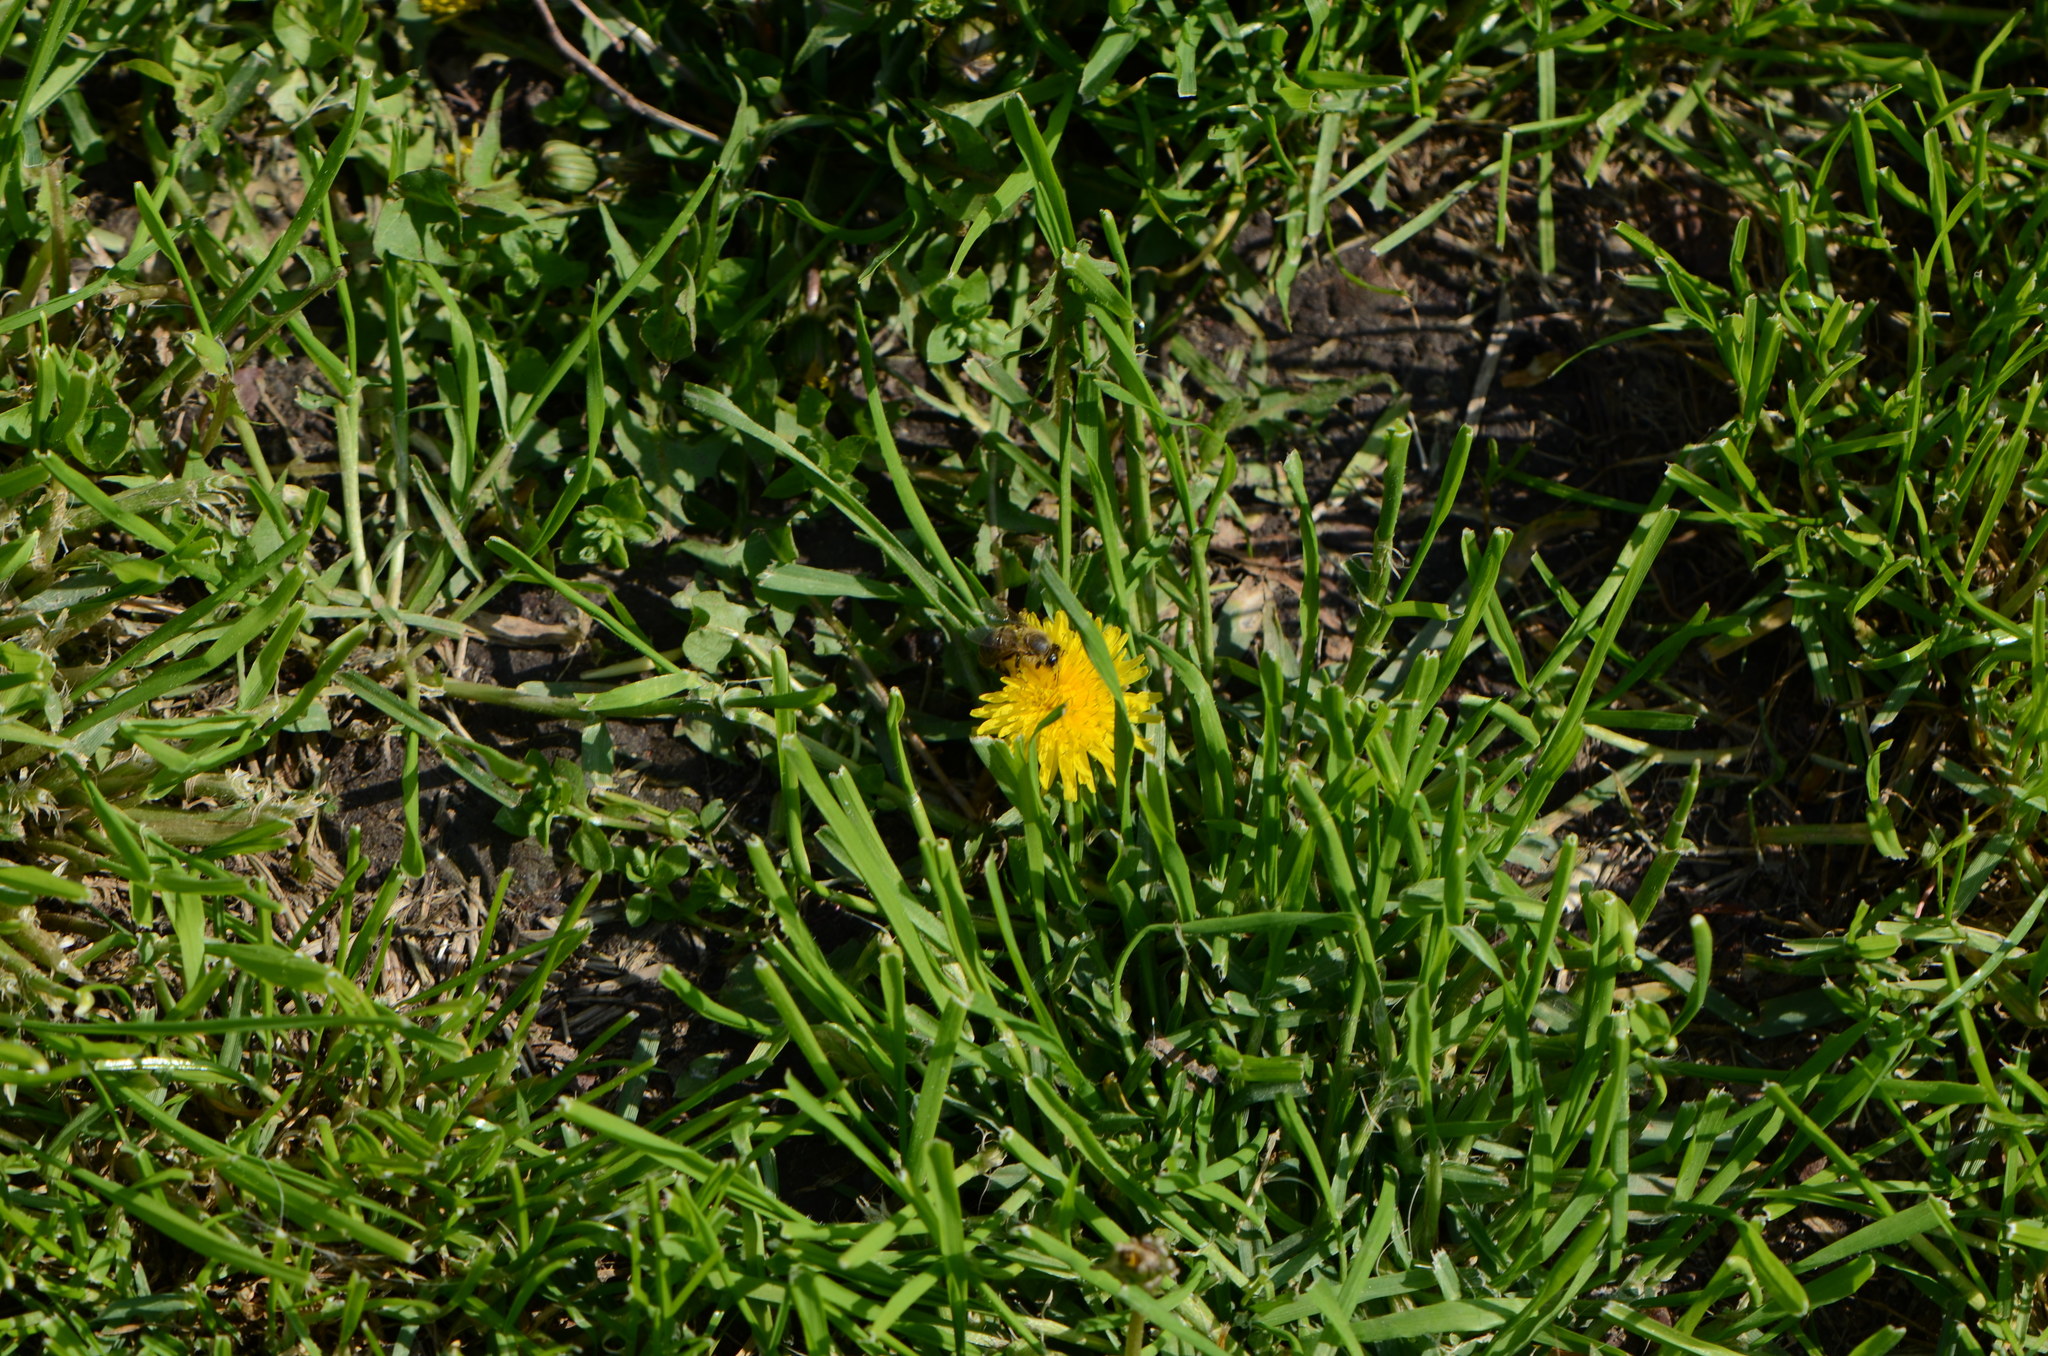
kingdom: Animalia
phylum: Arthropoda
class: Insecta
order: Hymenoptera
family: Apidae
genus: Apis
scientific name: Apis mellifera
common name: Honey bee
